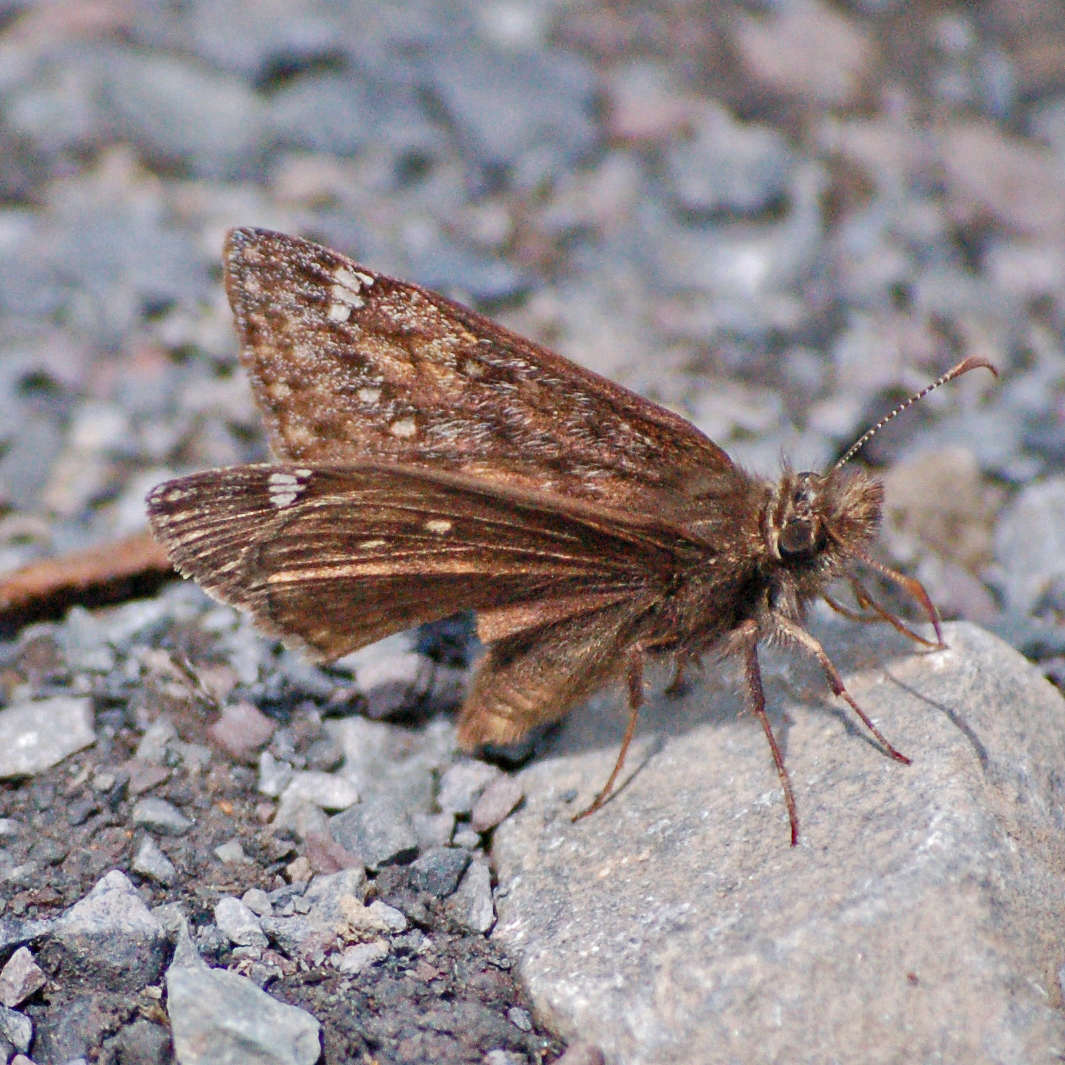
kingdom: Animalia
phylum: Arthropoda
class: Insecta
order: Lepidoptera
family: Hesperiidae
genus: Erynnis
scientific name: Erynnis juvenalis
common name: Juvenal's duskywing
